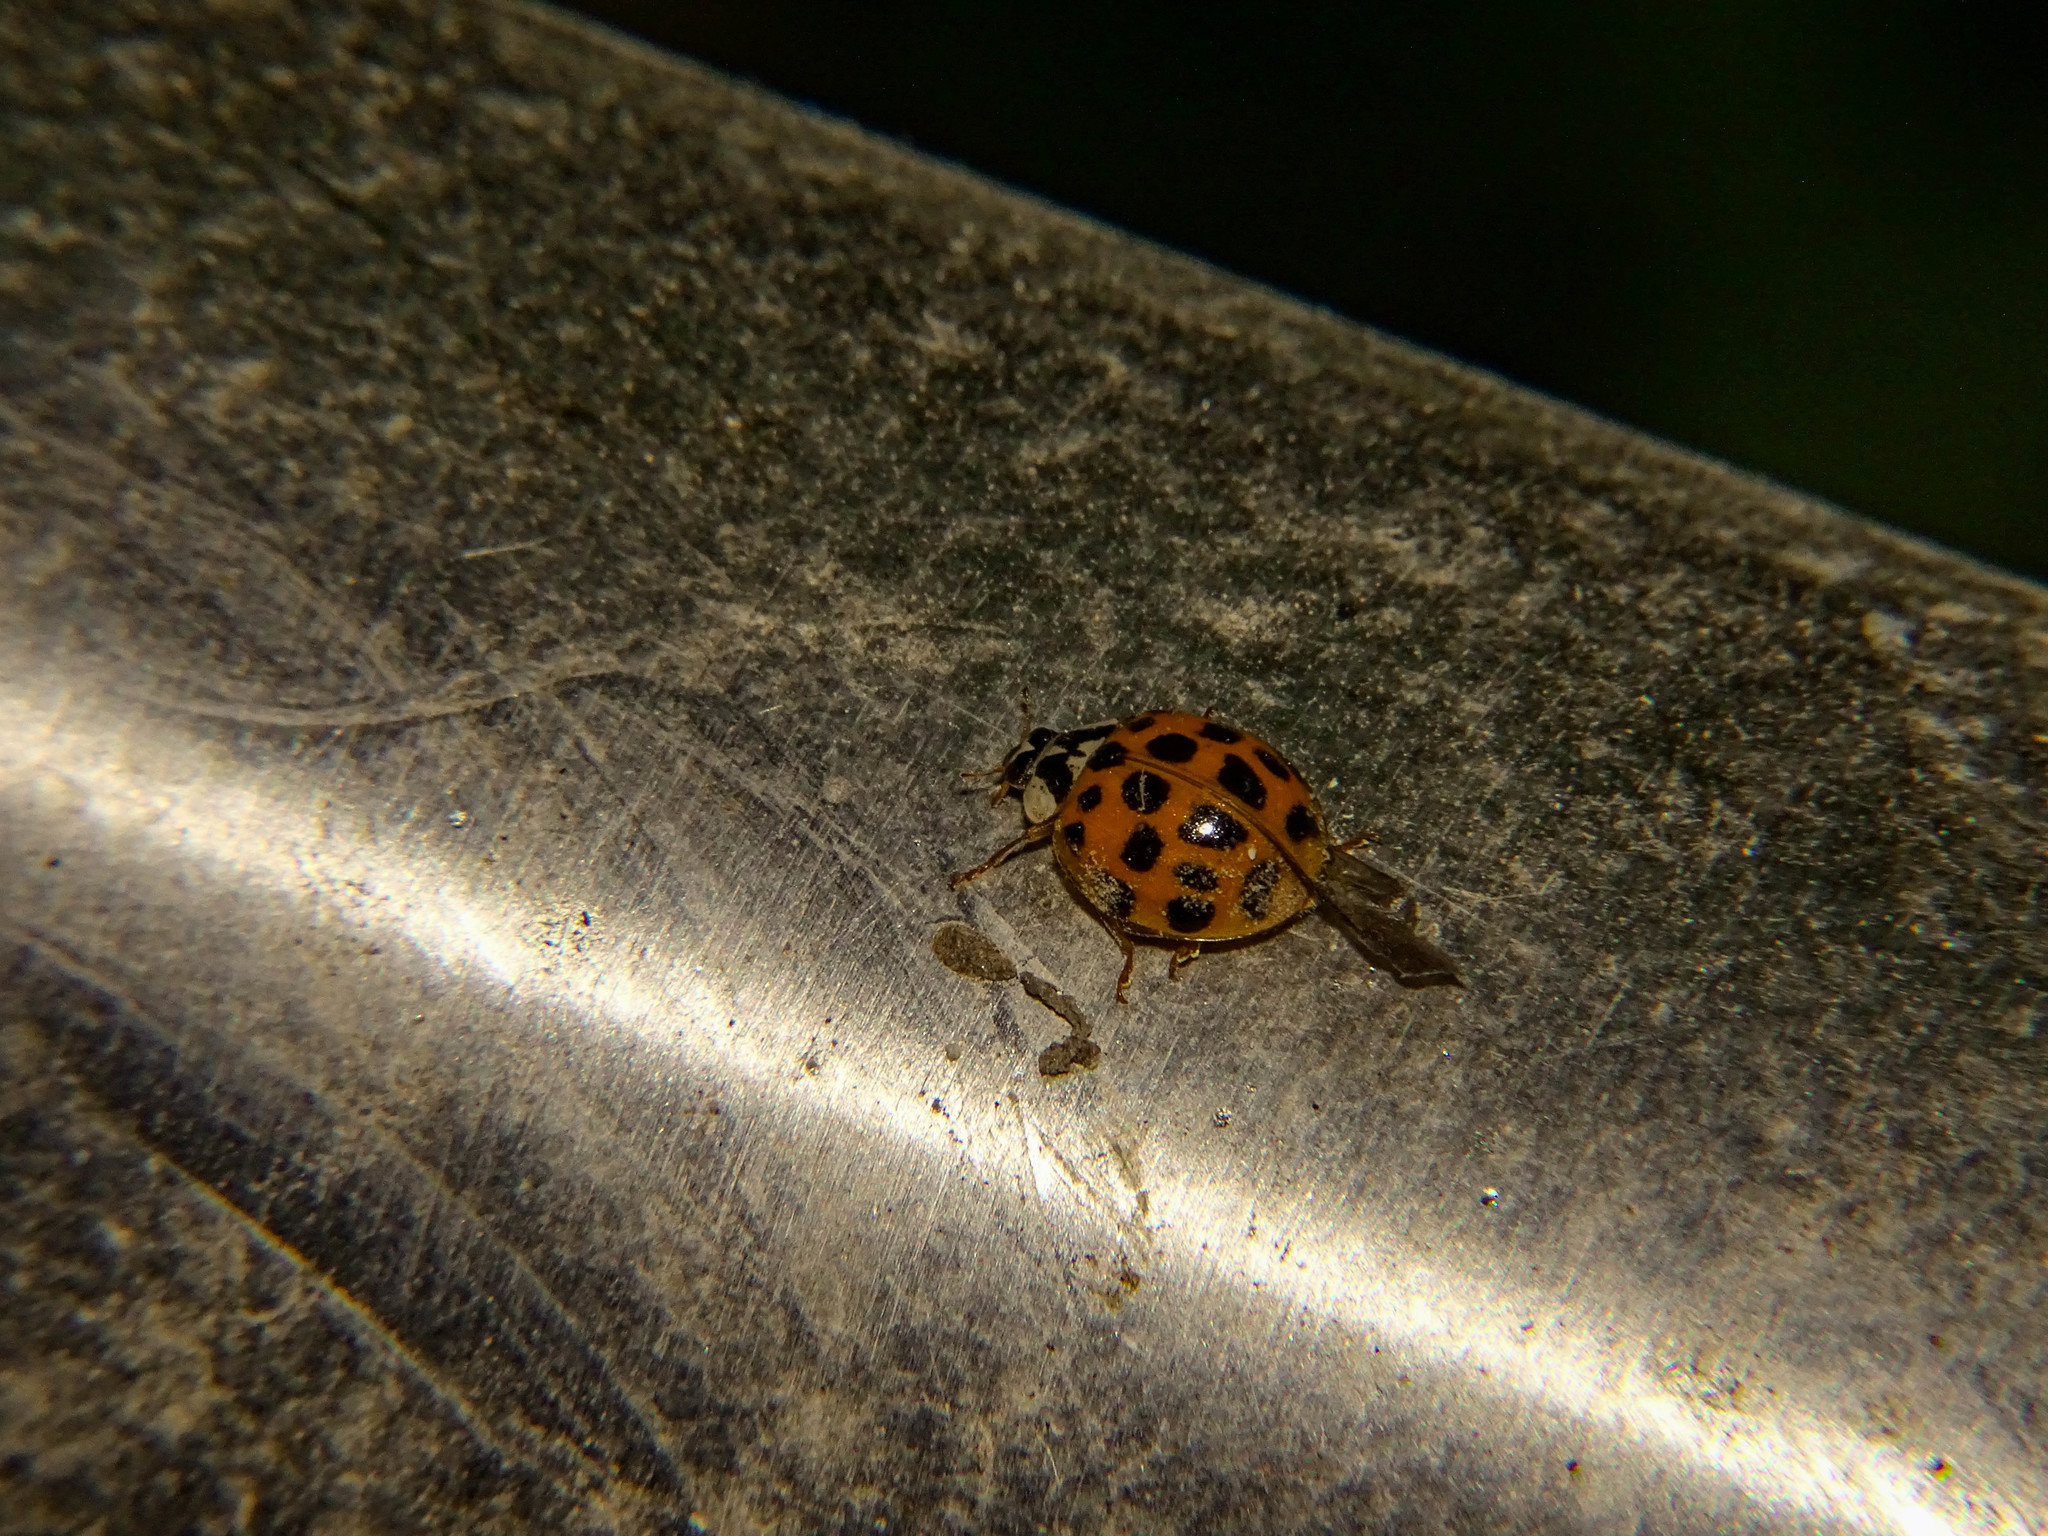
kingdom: Animalia
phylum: Arthropoda
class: Insecta
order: Coleoptera
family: Coccinellidae
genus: Harmonia
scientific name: Harmonia axyridis
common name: Harlequin ladybird
